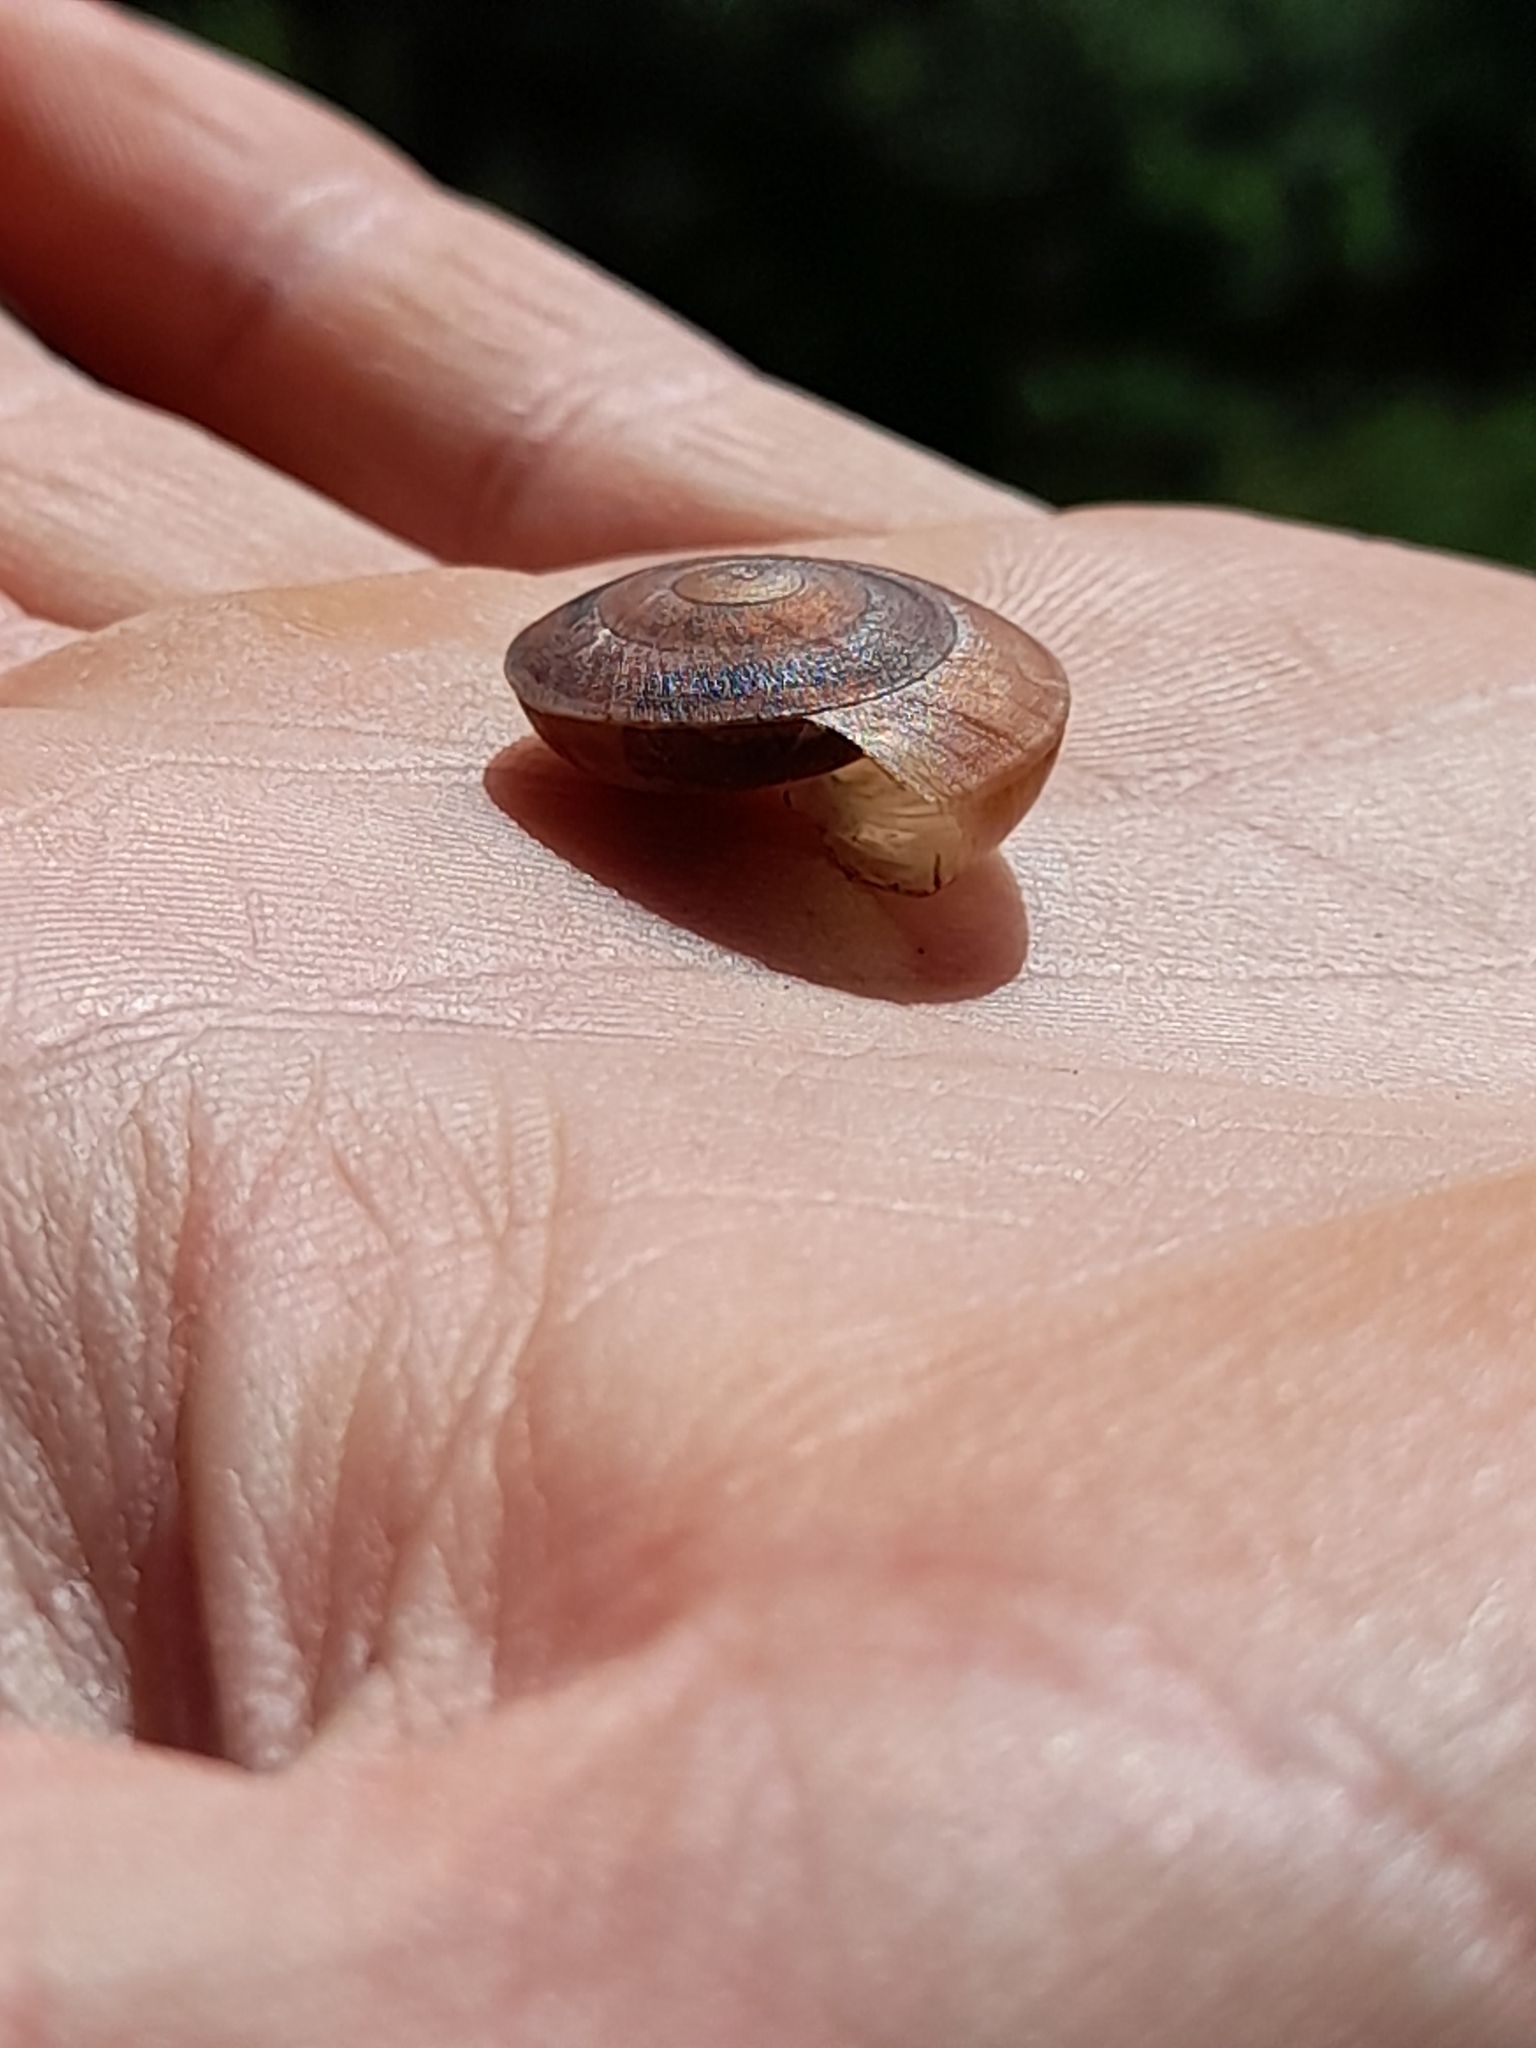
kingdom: Animalia
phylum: Mollusca
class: Gastropoda
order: Stylommatophora
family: Zonitidae
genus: Zonites
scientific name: Zonites algirus
